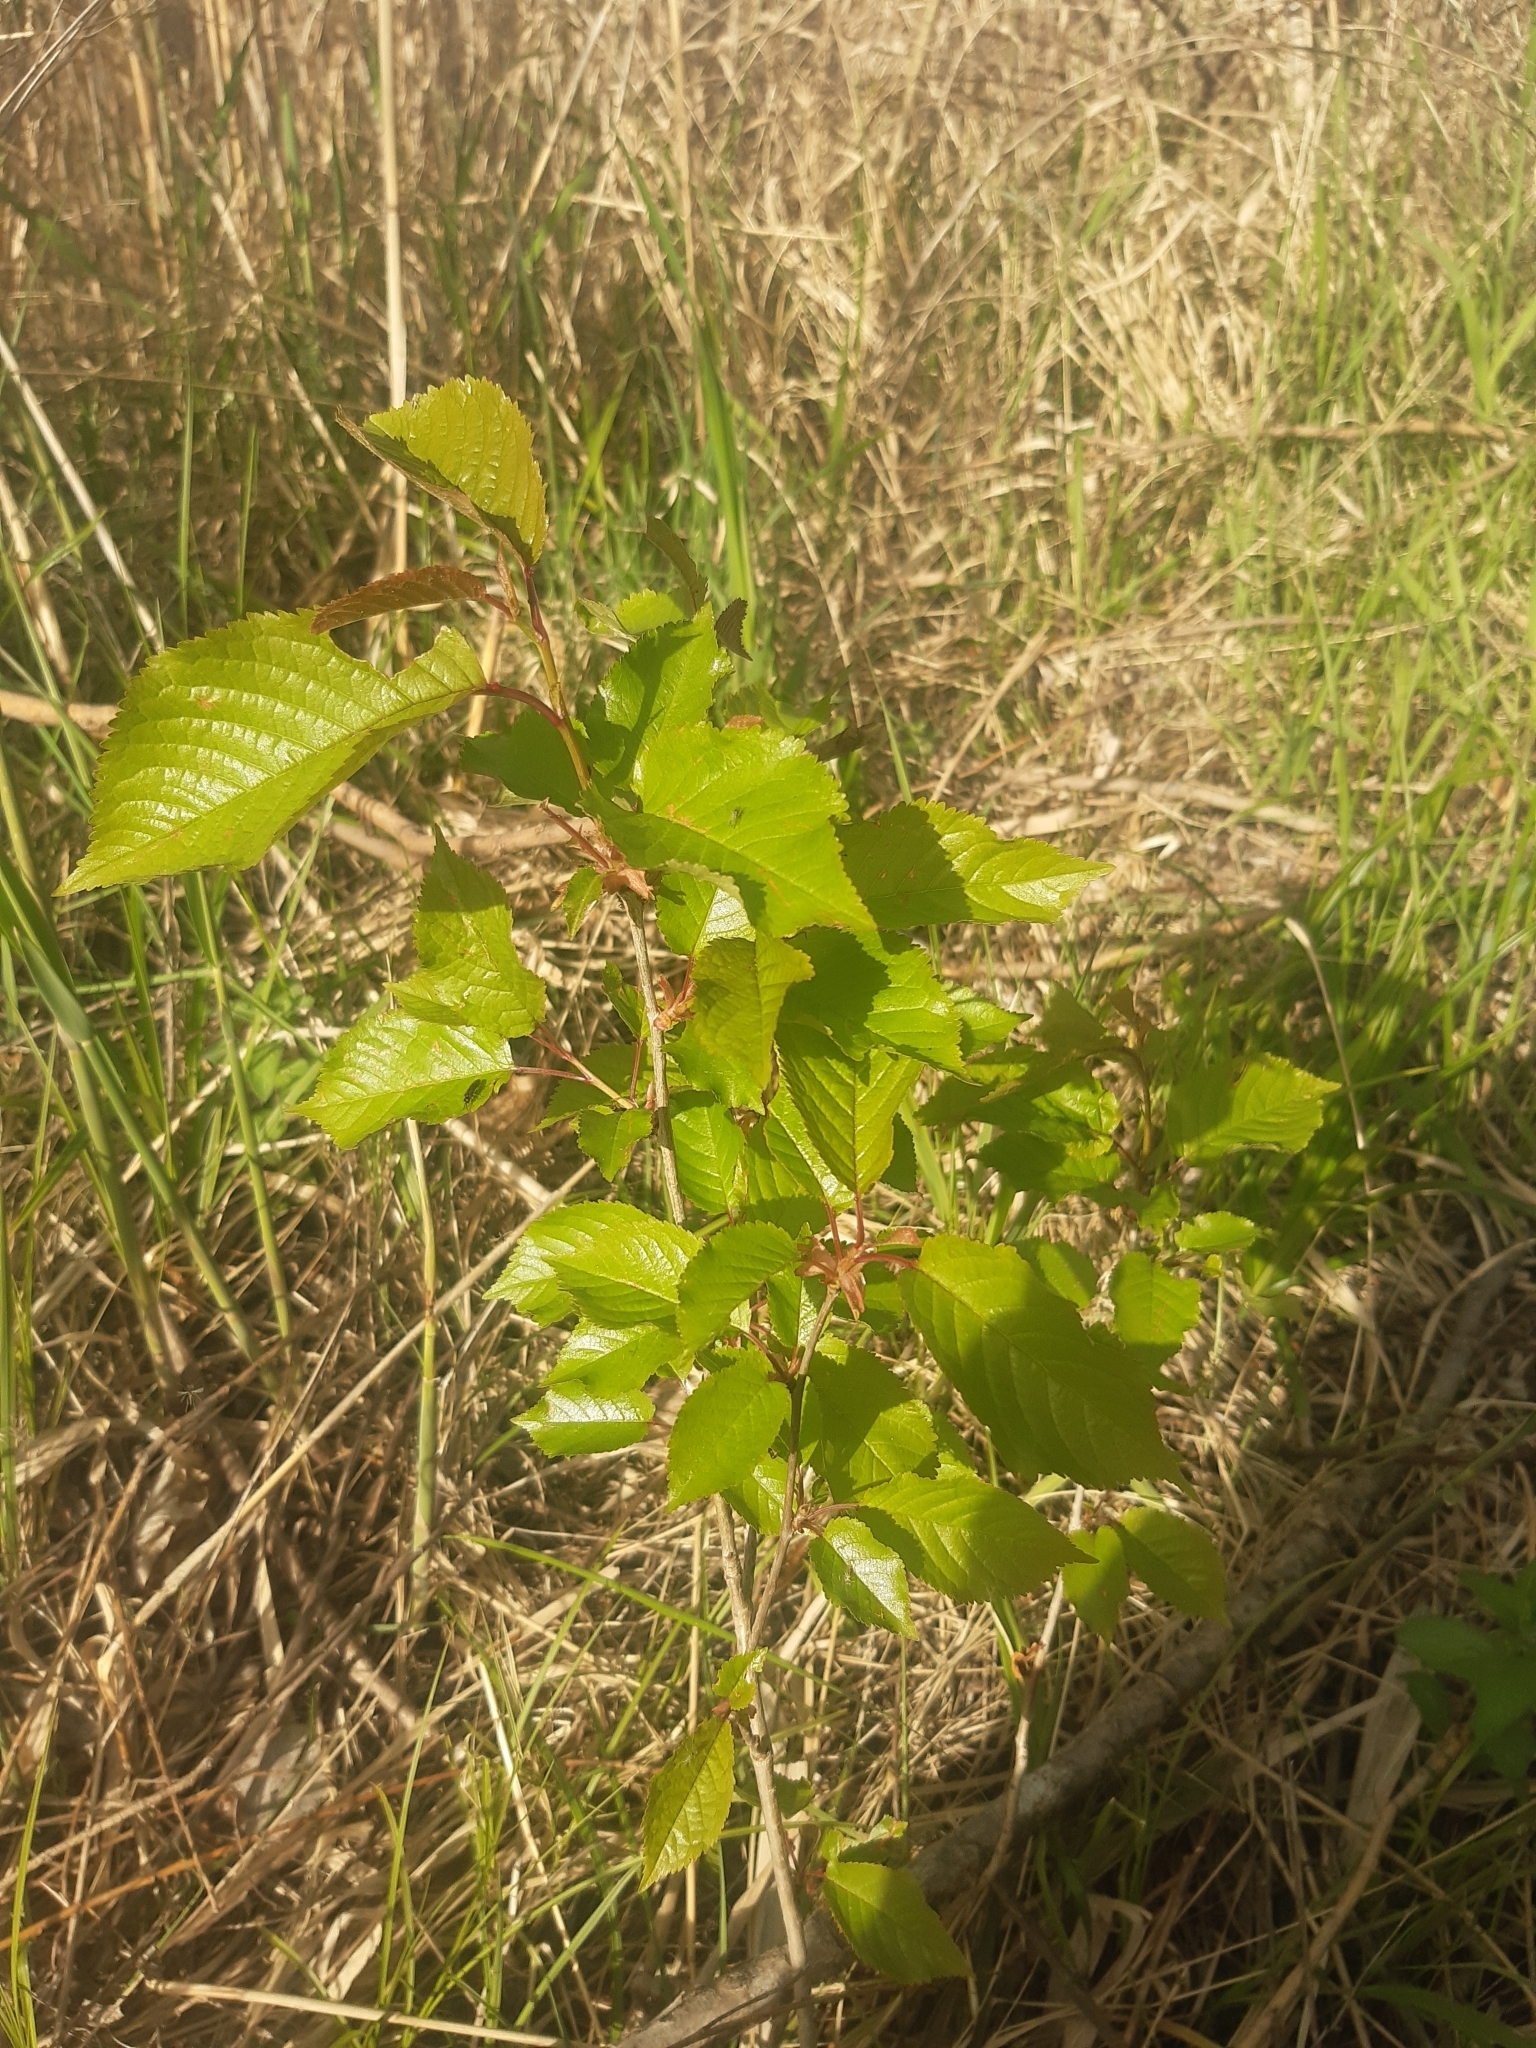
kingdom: Plantae
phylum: Tracheophyta
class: Magnoliopsida
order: Rosales
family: Rosaceae
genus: Prunus
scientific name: Prunus avium
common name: Sweet cherry
